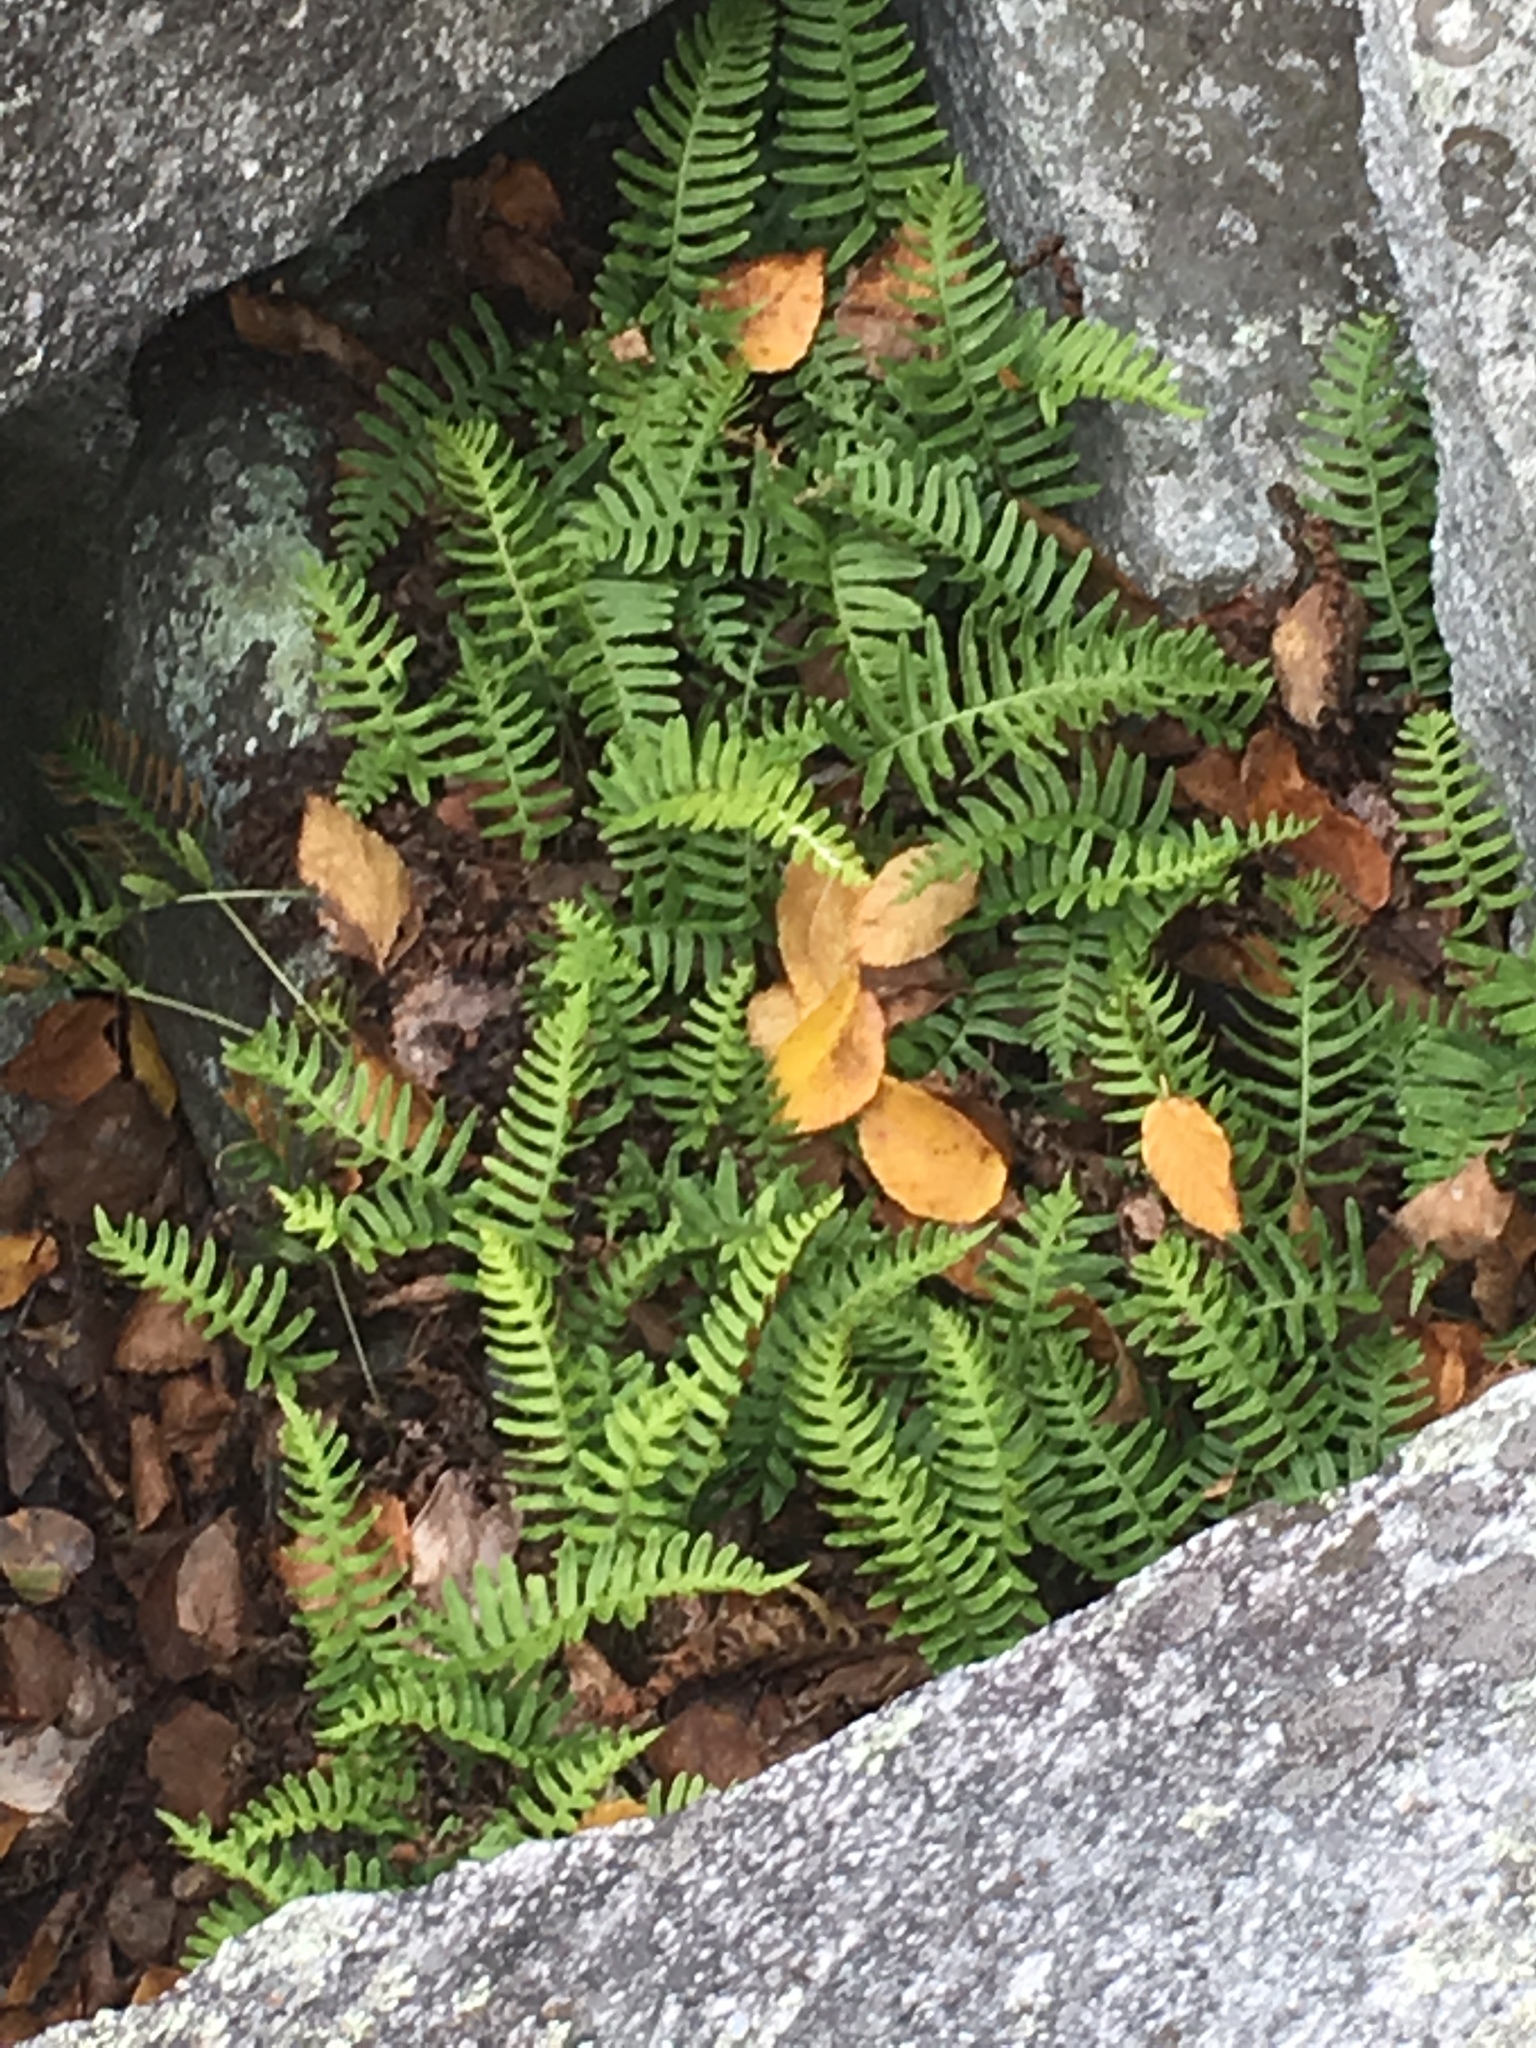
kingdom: Plantae
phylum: Tracheophyta
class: Polypodiopsida
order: Polypodiales
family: Polypodiaceae
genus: Polypodium
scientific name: Polypodium
